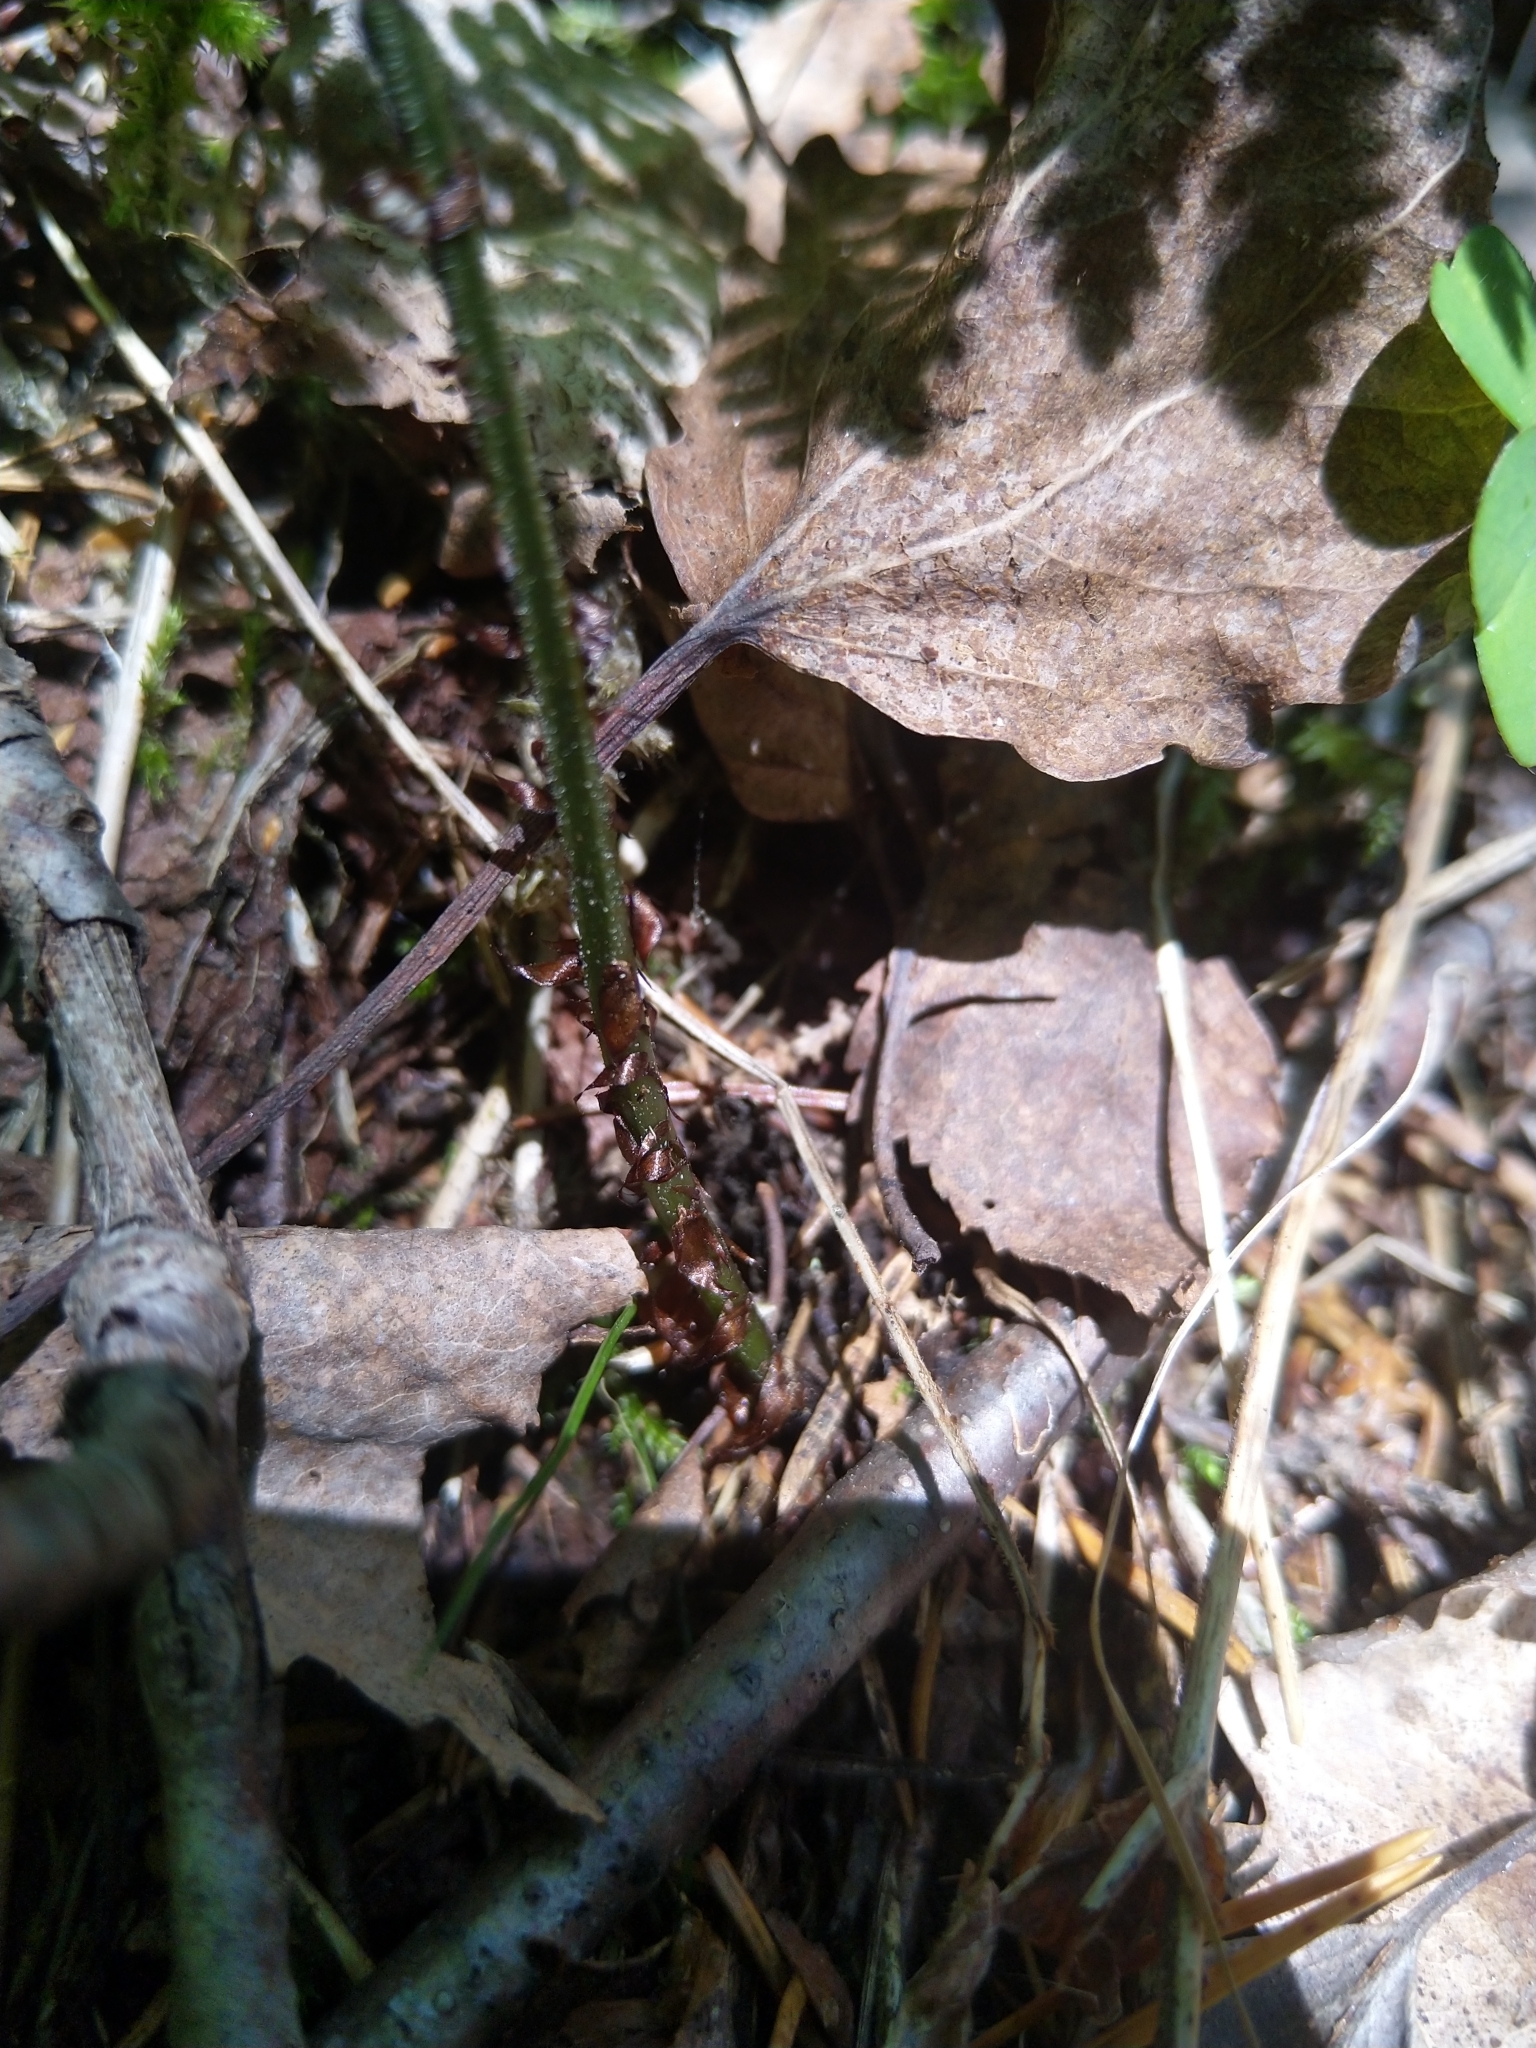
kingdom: Plantae
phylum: Tracheophyta
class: Polypodiopsida
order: Polypodiales
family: Athyriaceae
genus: Diplazium
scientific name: Diplazium sibiricum
